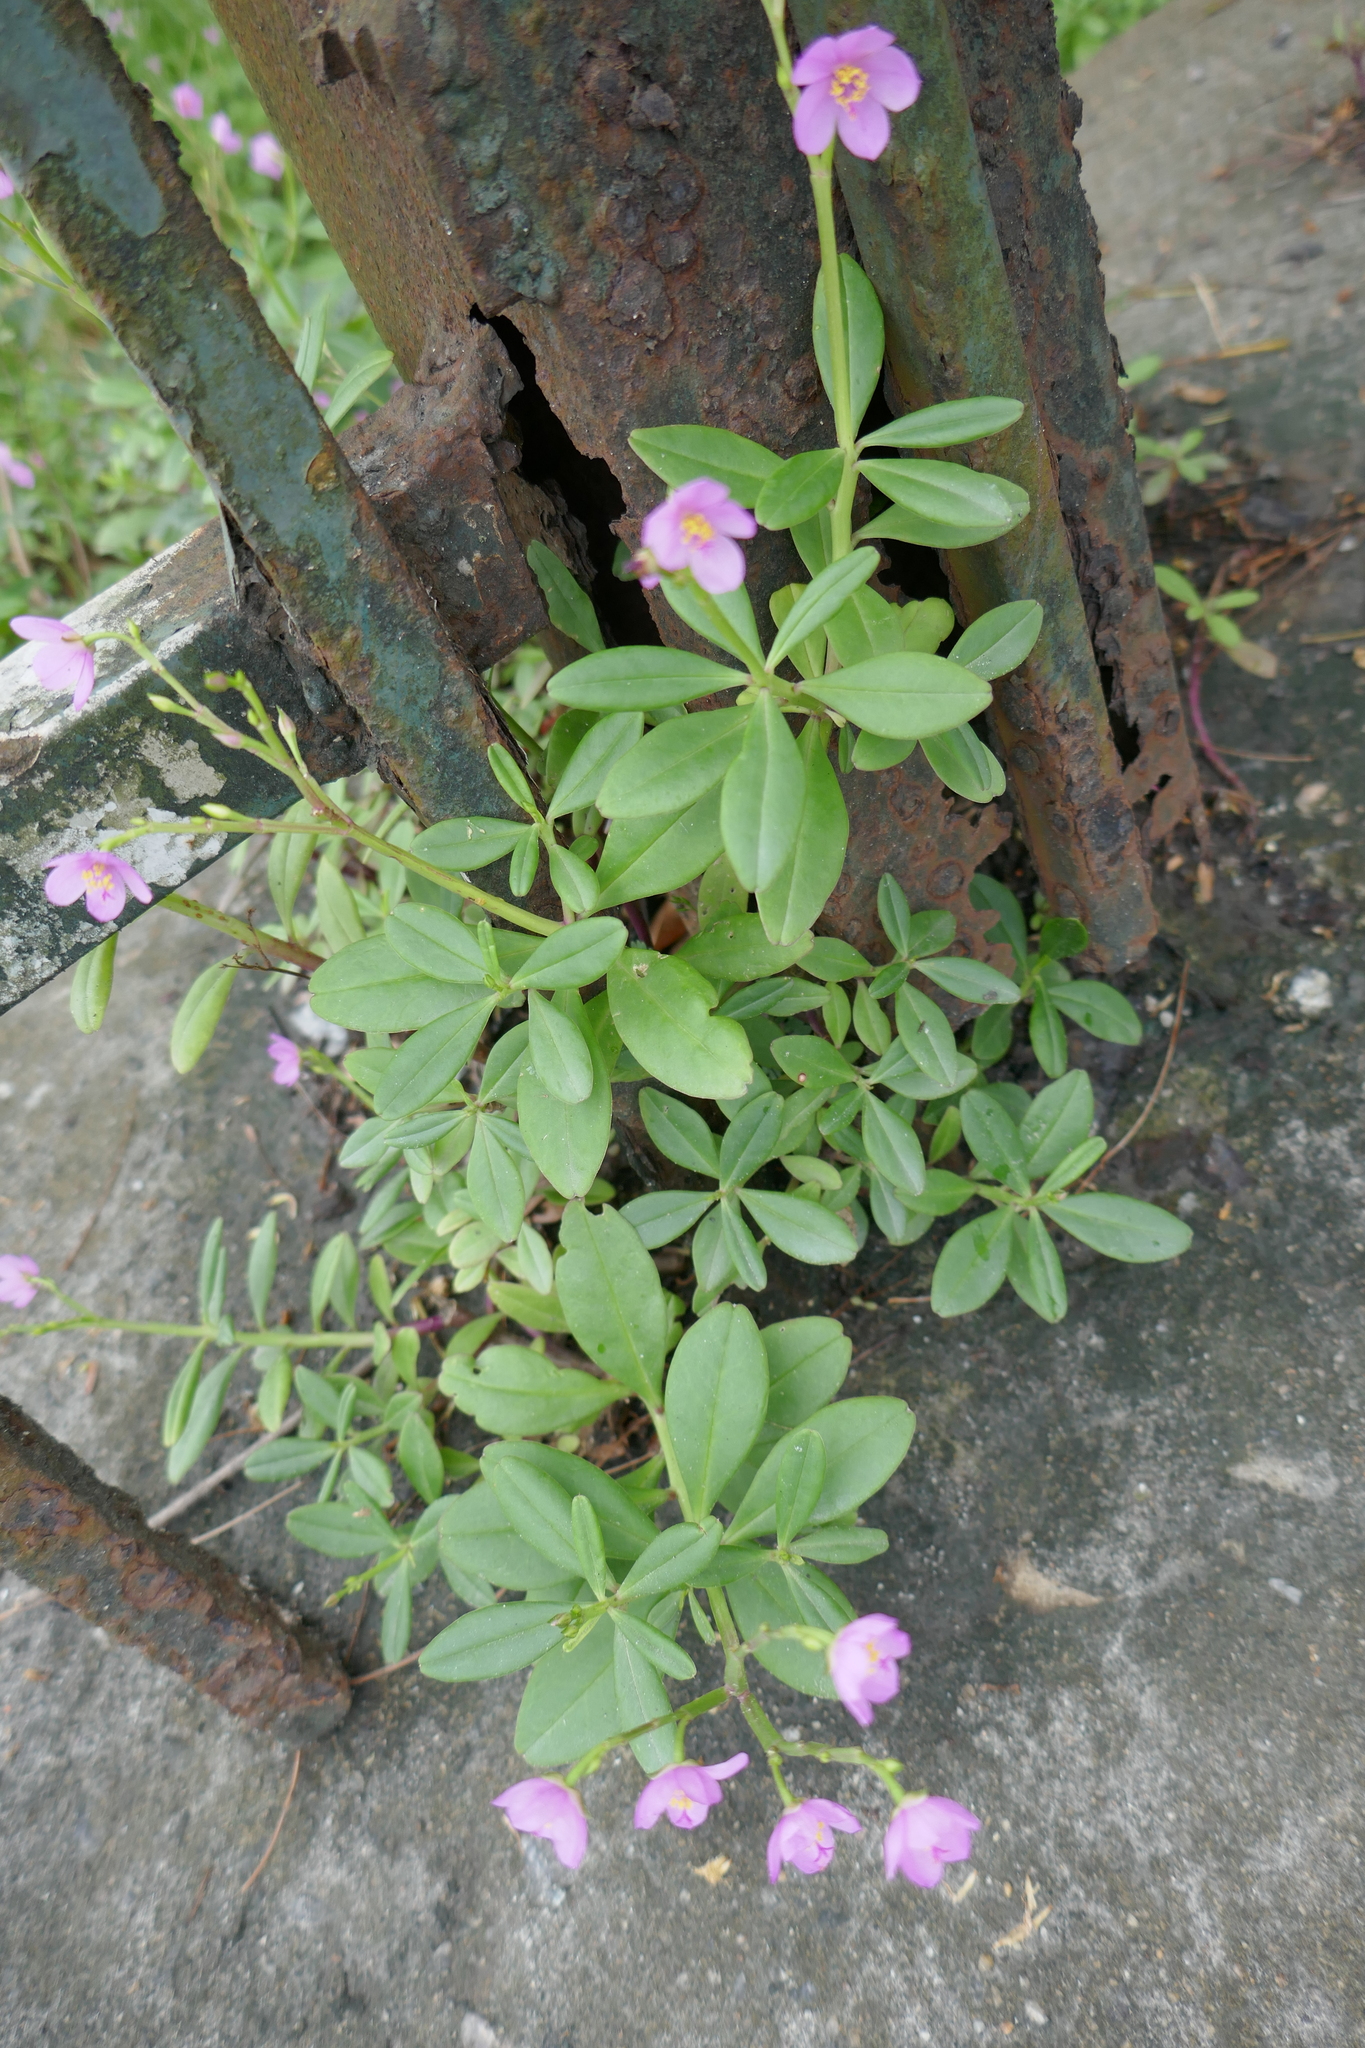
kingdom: Plantae
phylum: Tracheophyta
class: Magnoliopsida
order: Caryophyllales
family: Talinaceae
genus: Talinum
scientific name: Talinum fruticosum
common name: Verdolaga-francesa
